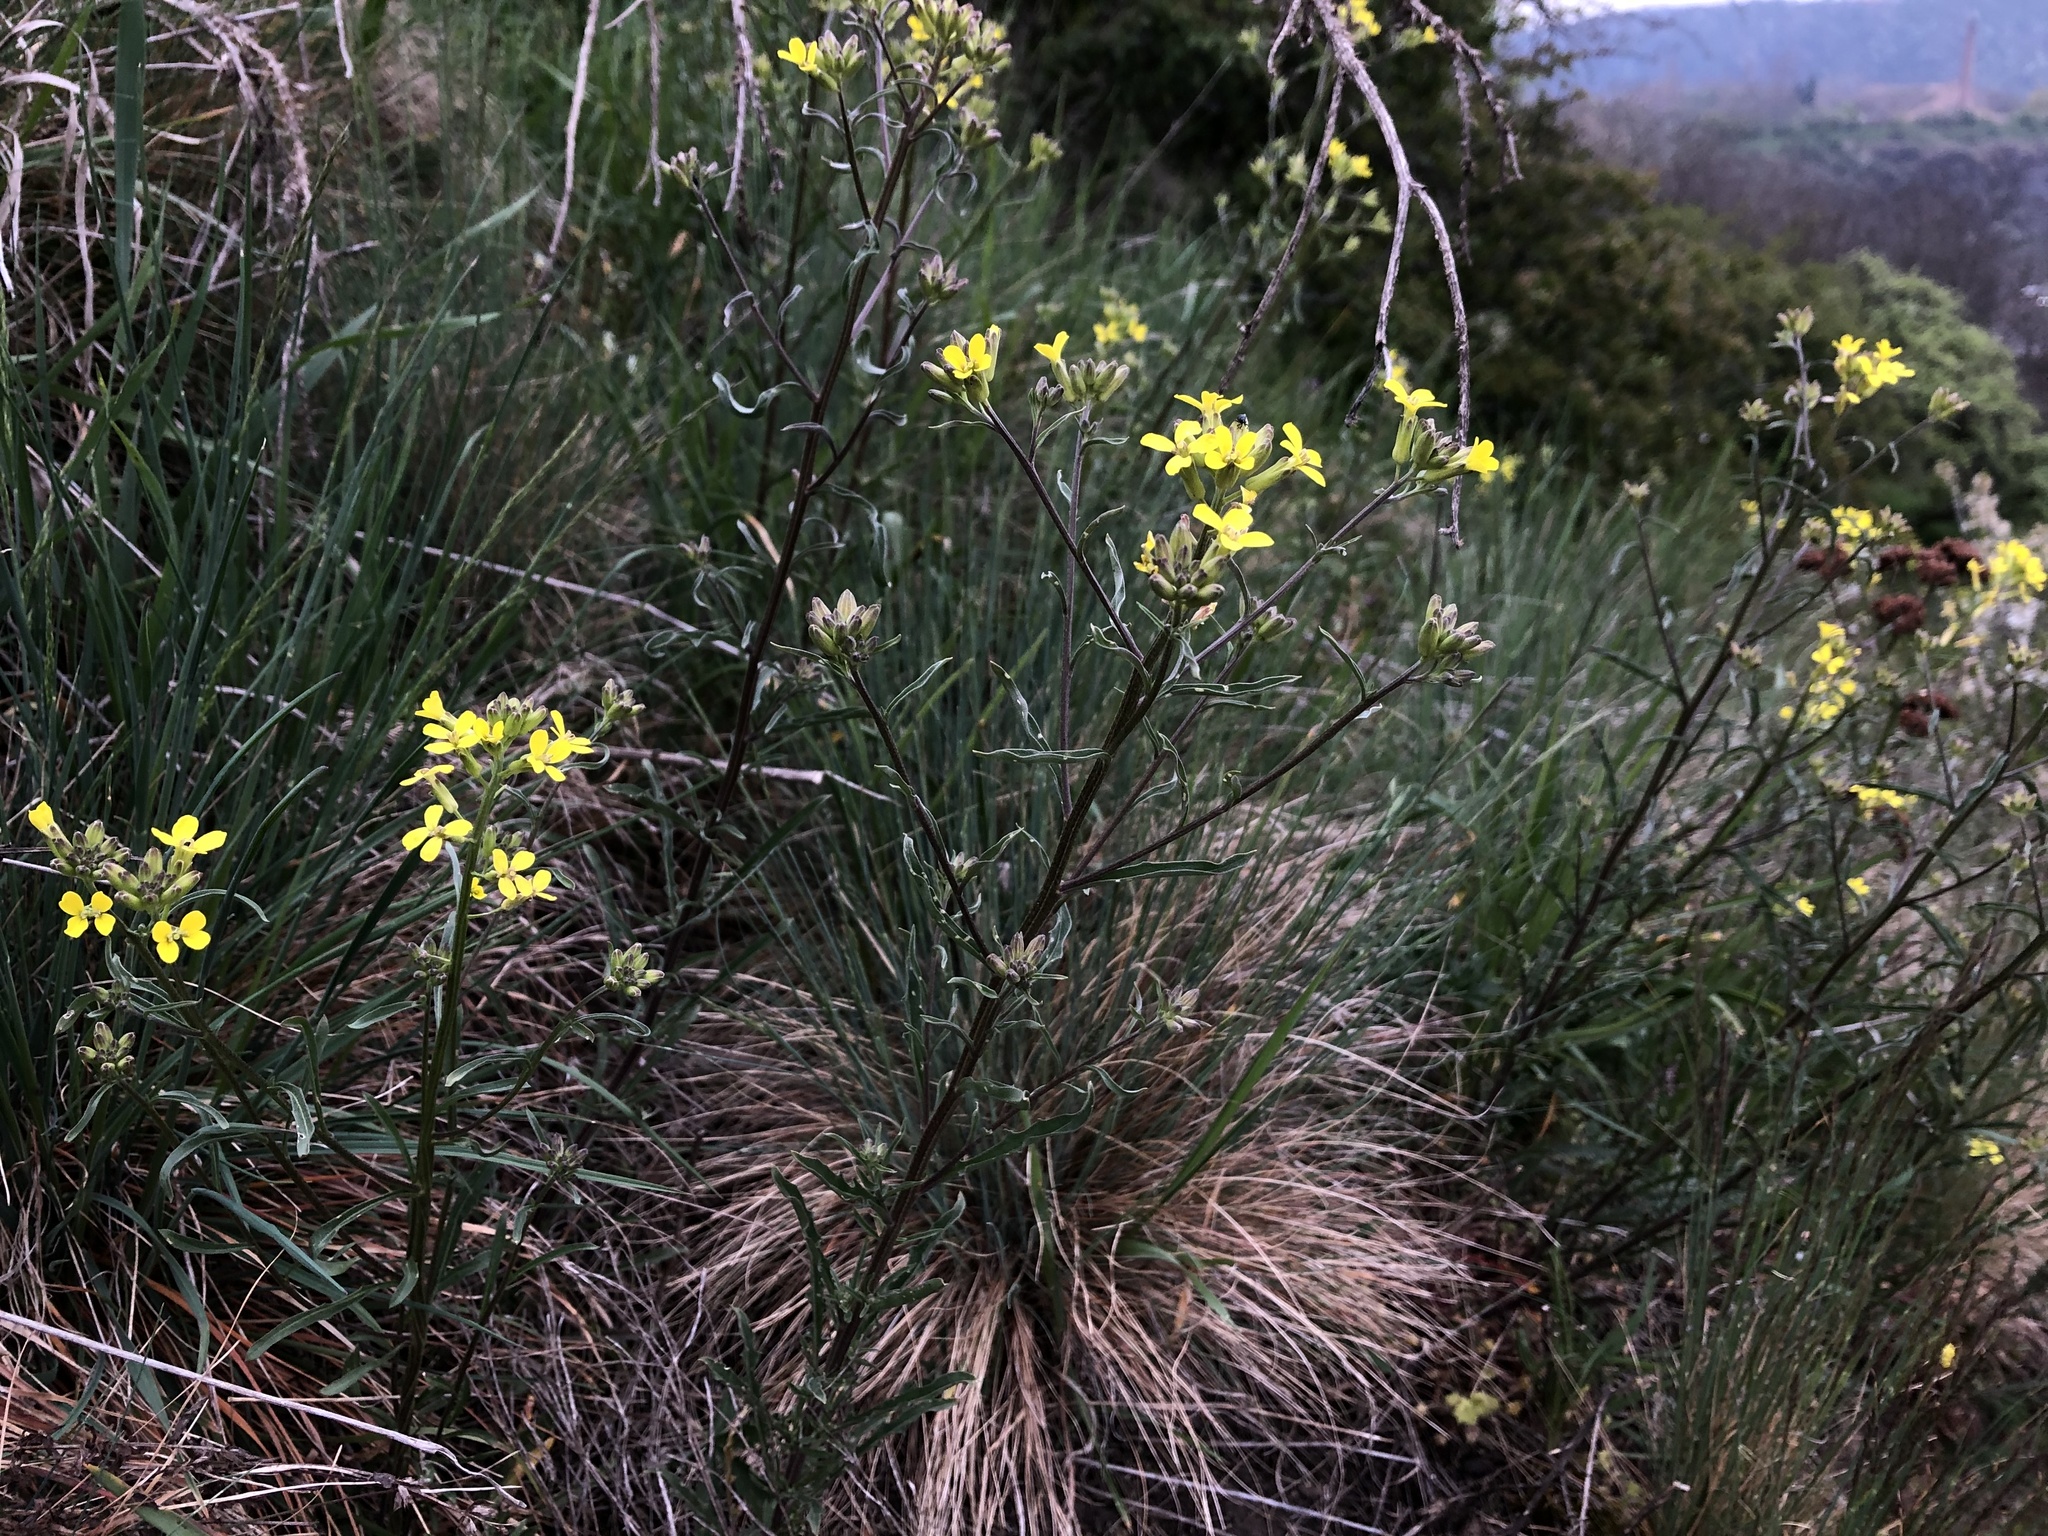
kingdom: Plantae
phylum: Tracheophyta
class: Magnoliopsida
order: Brassicales
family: Brassicaceae
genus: Erysimum
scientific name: Erysimum crepidifolium
